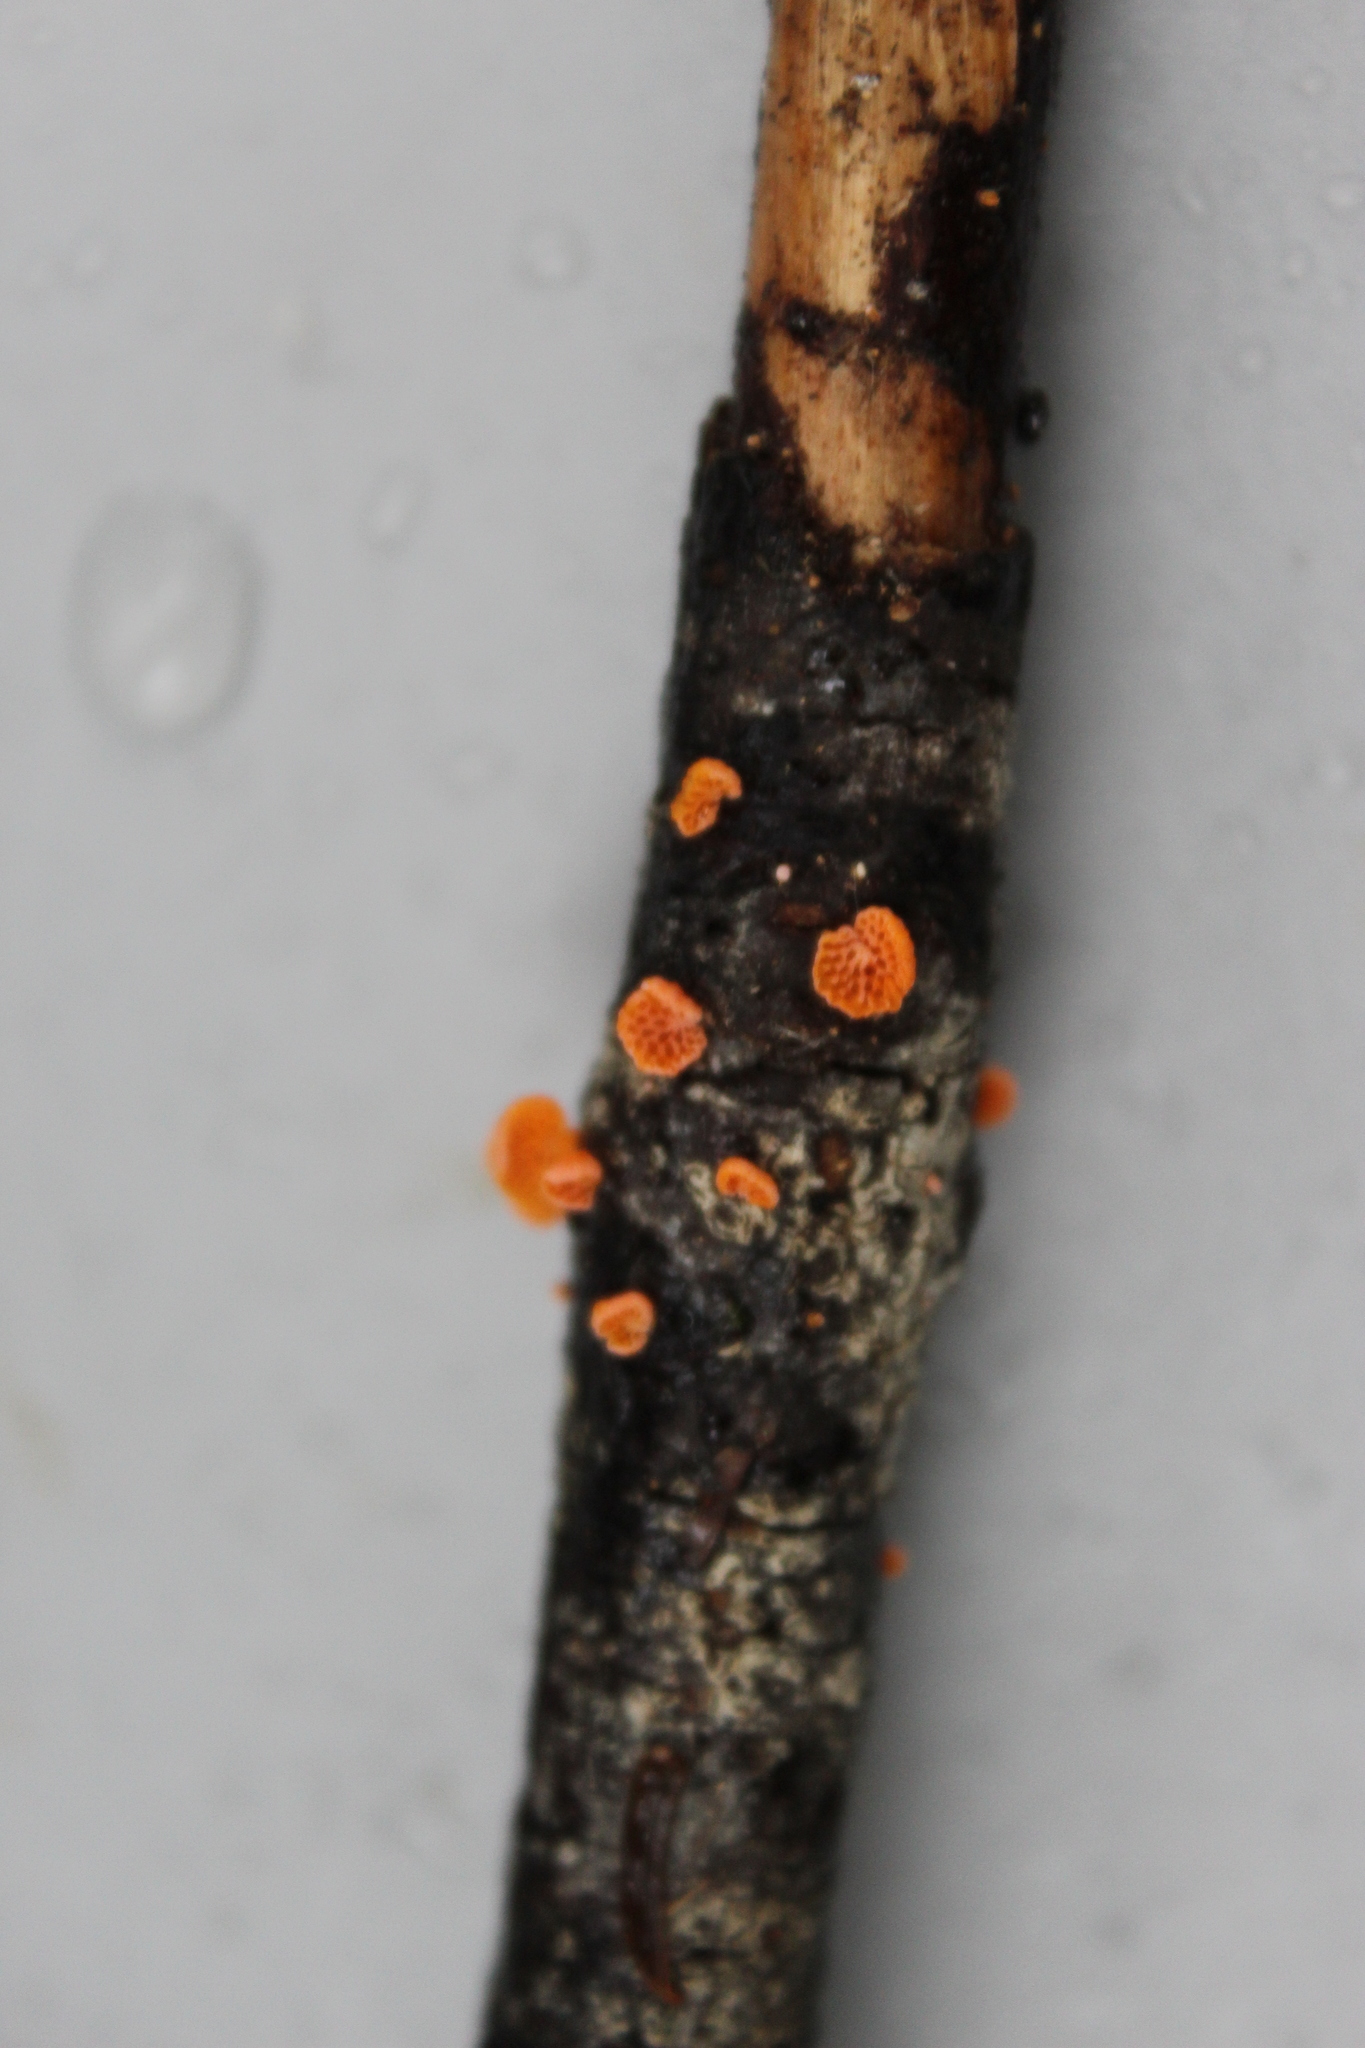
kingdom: Fungi
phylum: Basidiomycota
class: Agaricomycetes
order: Agaricales
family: Mycenaceae
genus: Favolaschia
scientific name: Favolaschia claudopus
